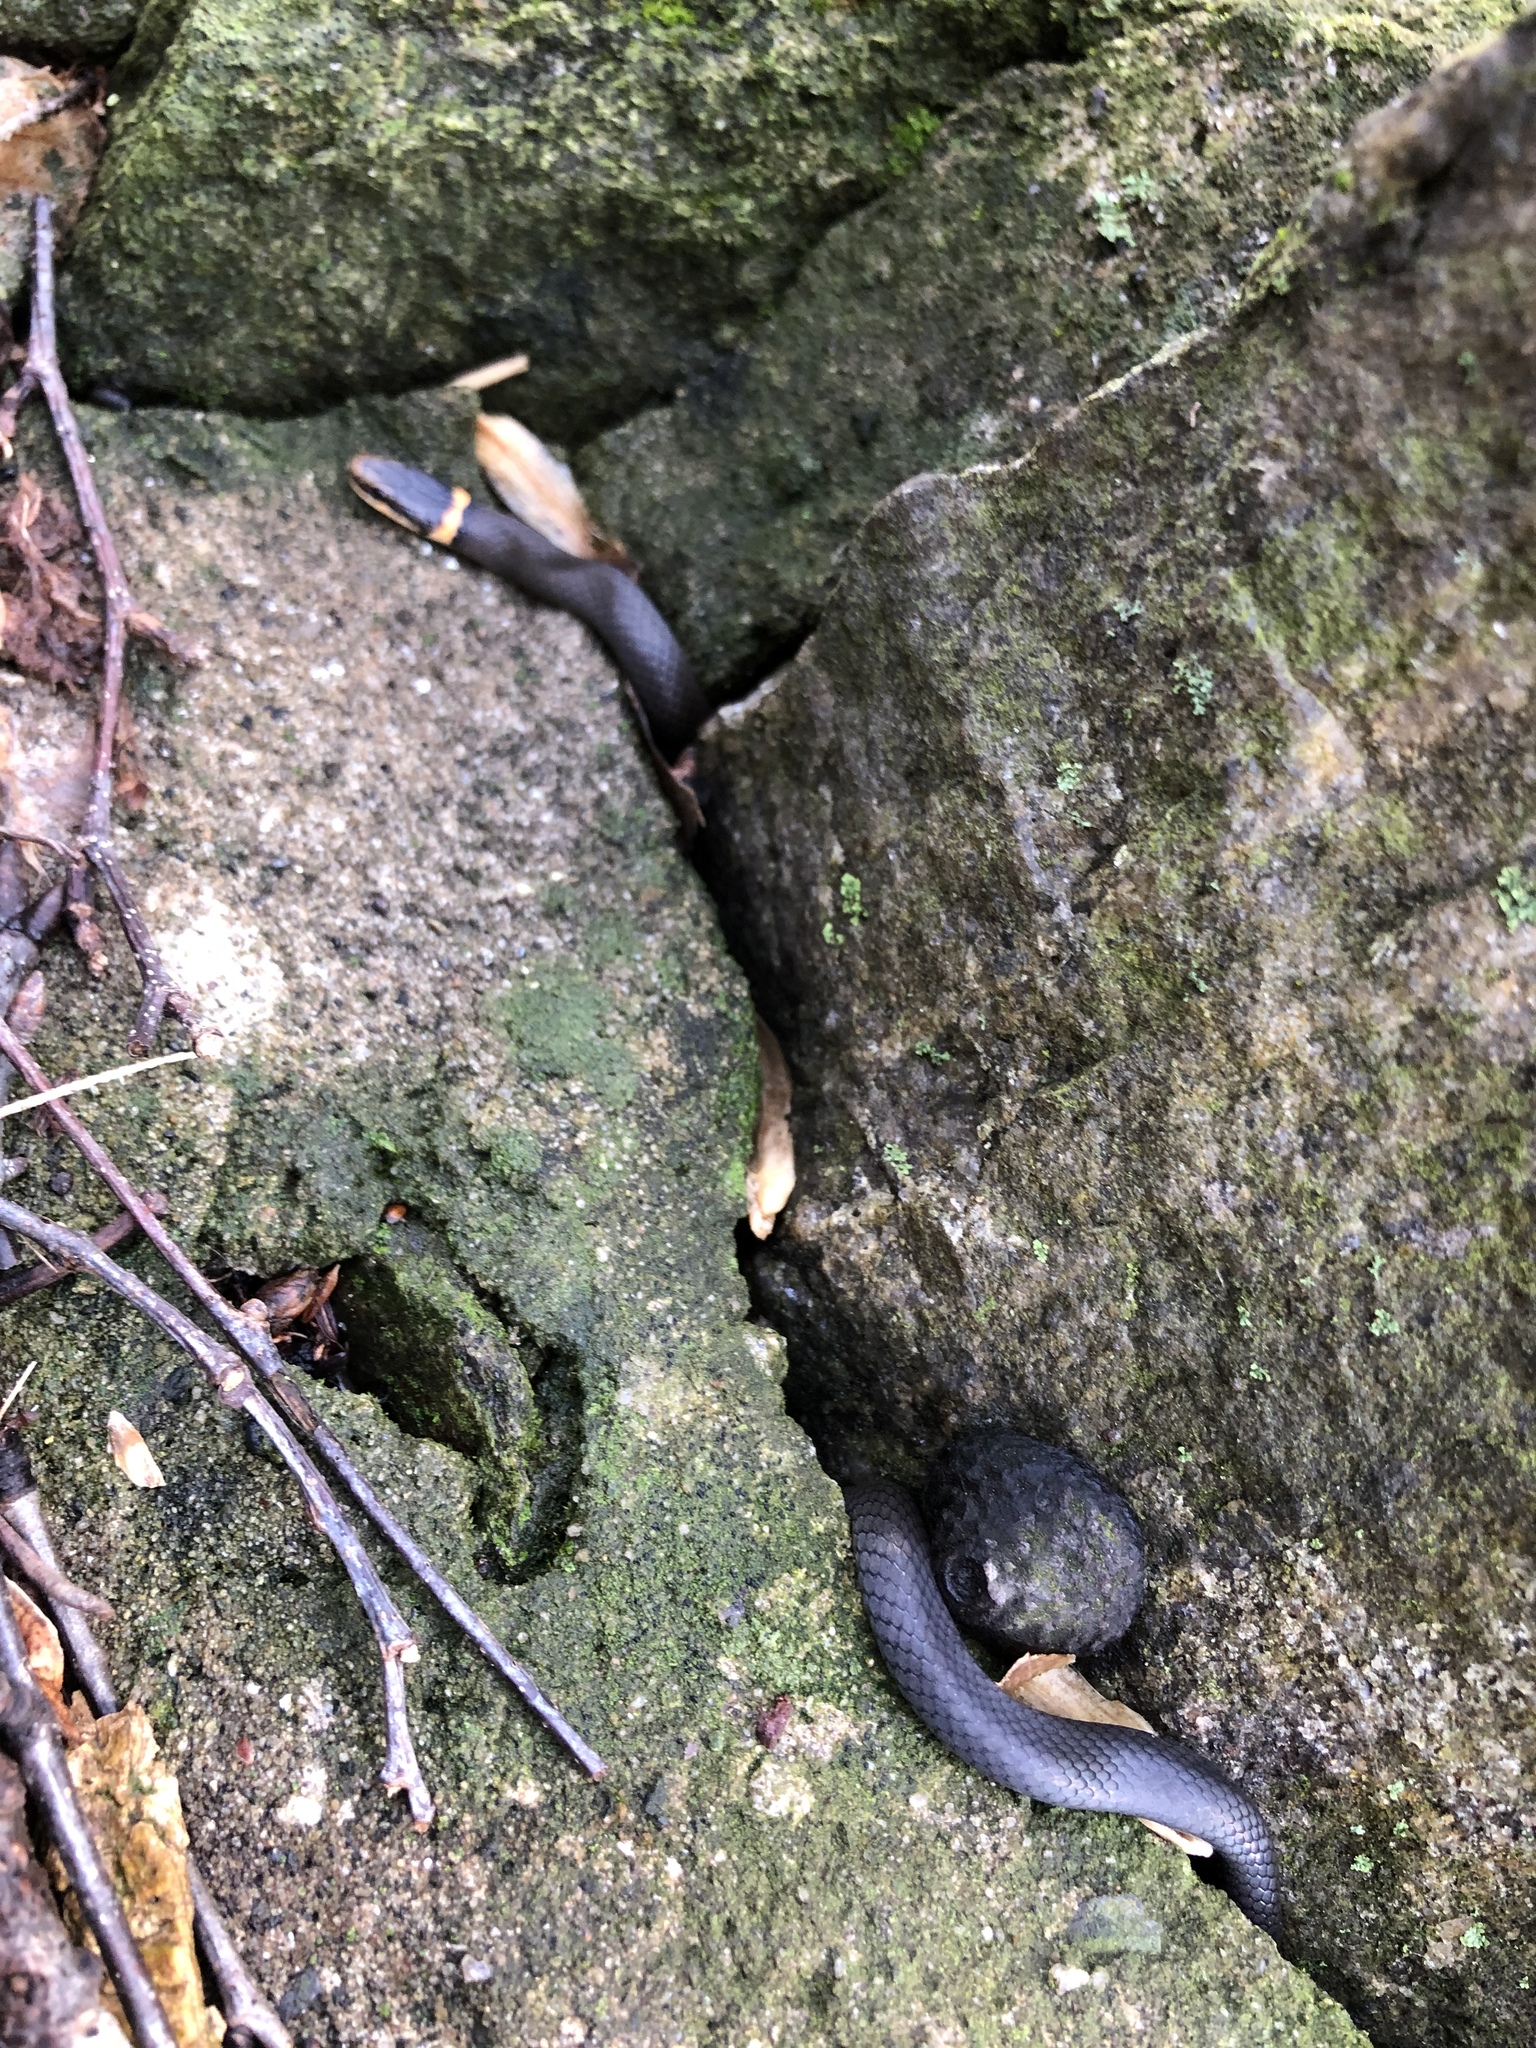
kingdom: Animalia
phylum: Chordata
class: Squamata
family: Colubridae
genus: Diadophis
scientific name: Diadophis punctatus
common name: Ringneck snake
